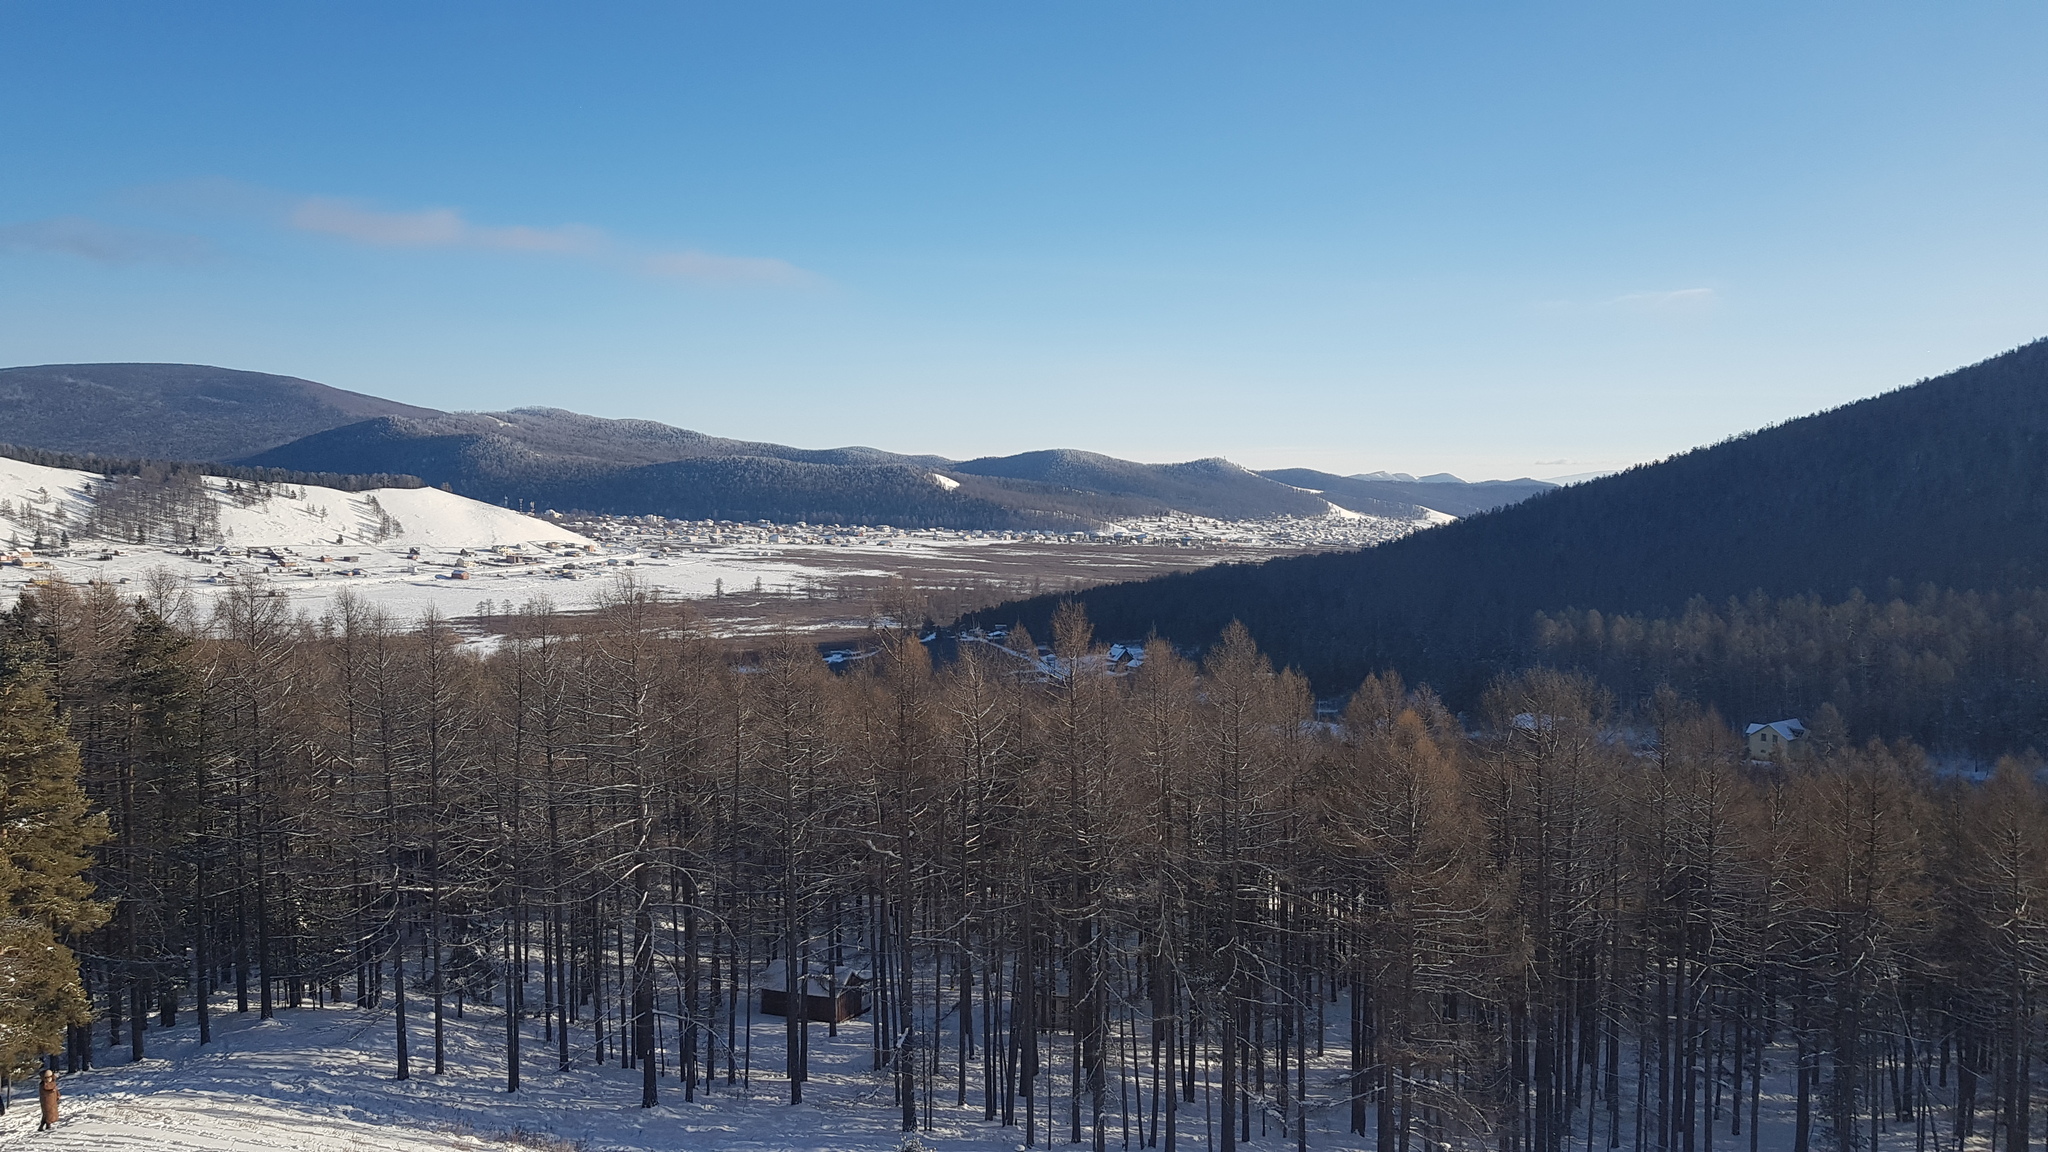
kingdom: Plantae
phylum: Tracheophyta
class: Pinopsida
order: Pinales
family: Pinaceae
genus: Larix
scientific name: Larix sibirica
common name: Siberian larch
